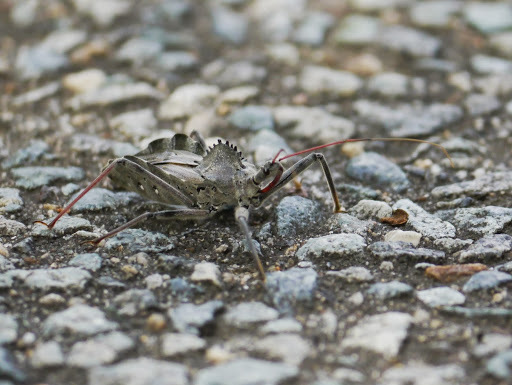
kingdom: Animalia
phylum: Arthropoda
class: Insecta
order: Hemiptera
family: Reduviidae
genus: Arilus
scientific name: Arilus cristatus
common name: North american wheel bug
